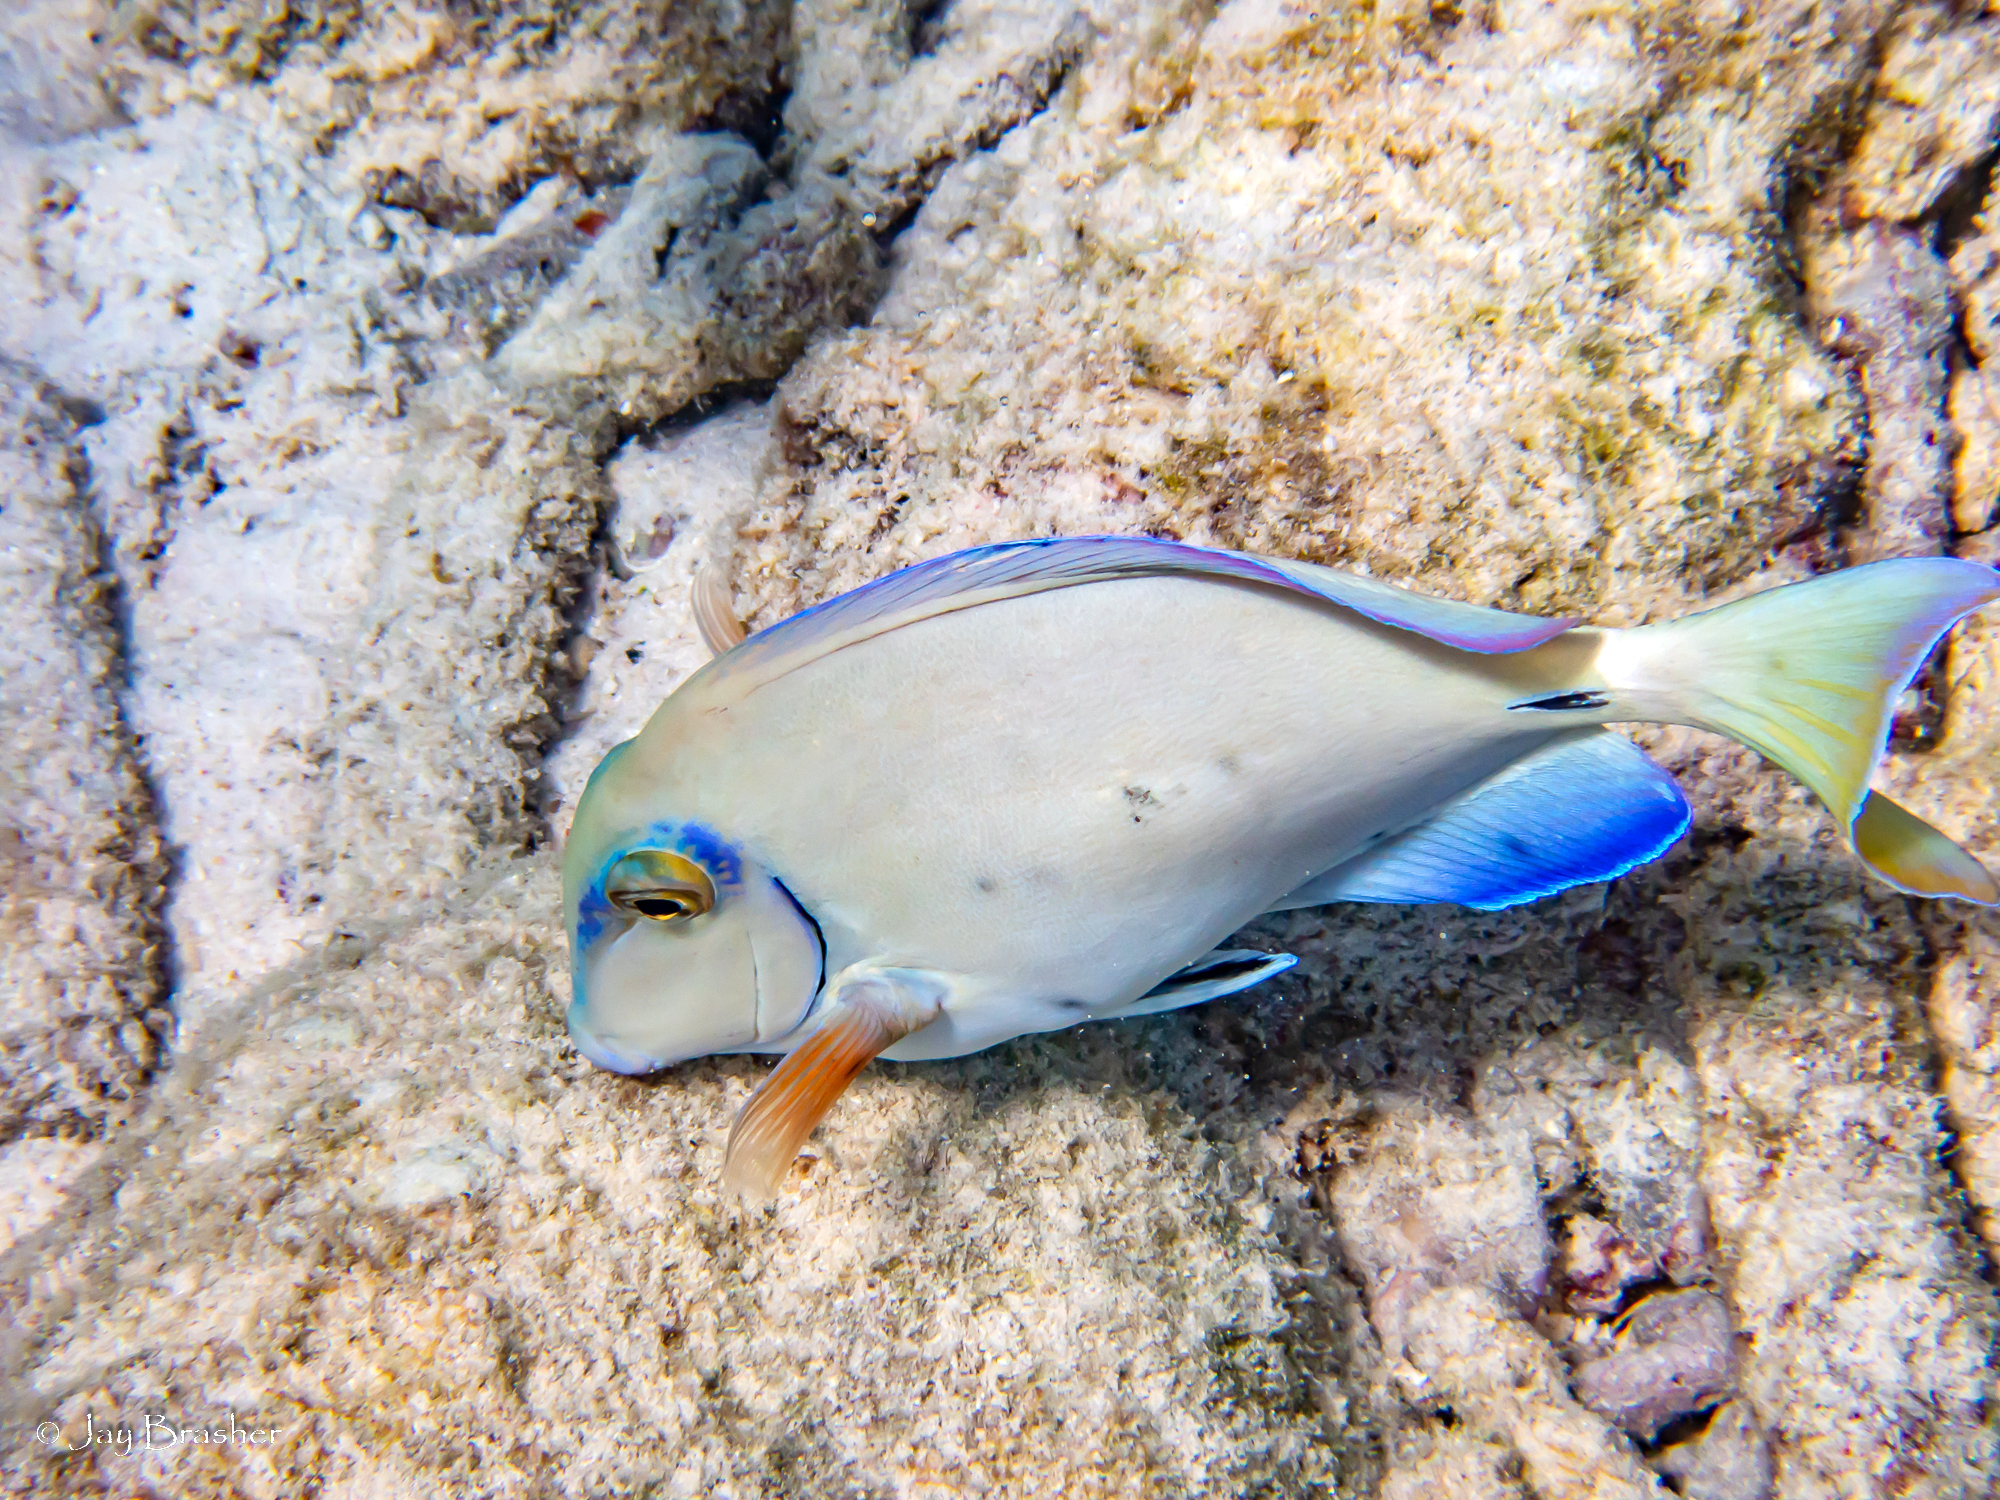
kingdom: Animalia
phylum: Chordata
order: Perciformes
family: Acanthuridae
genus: Acanthurus
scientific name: Acanthurus bahianus
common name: Ocean surgeon
